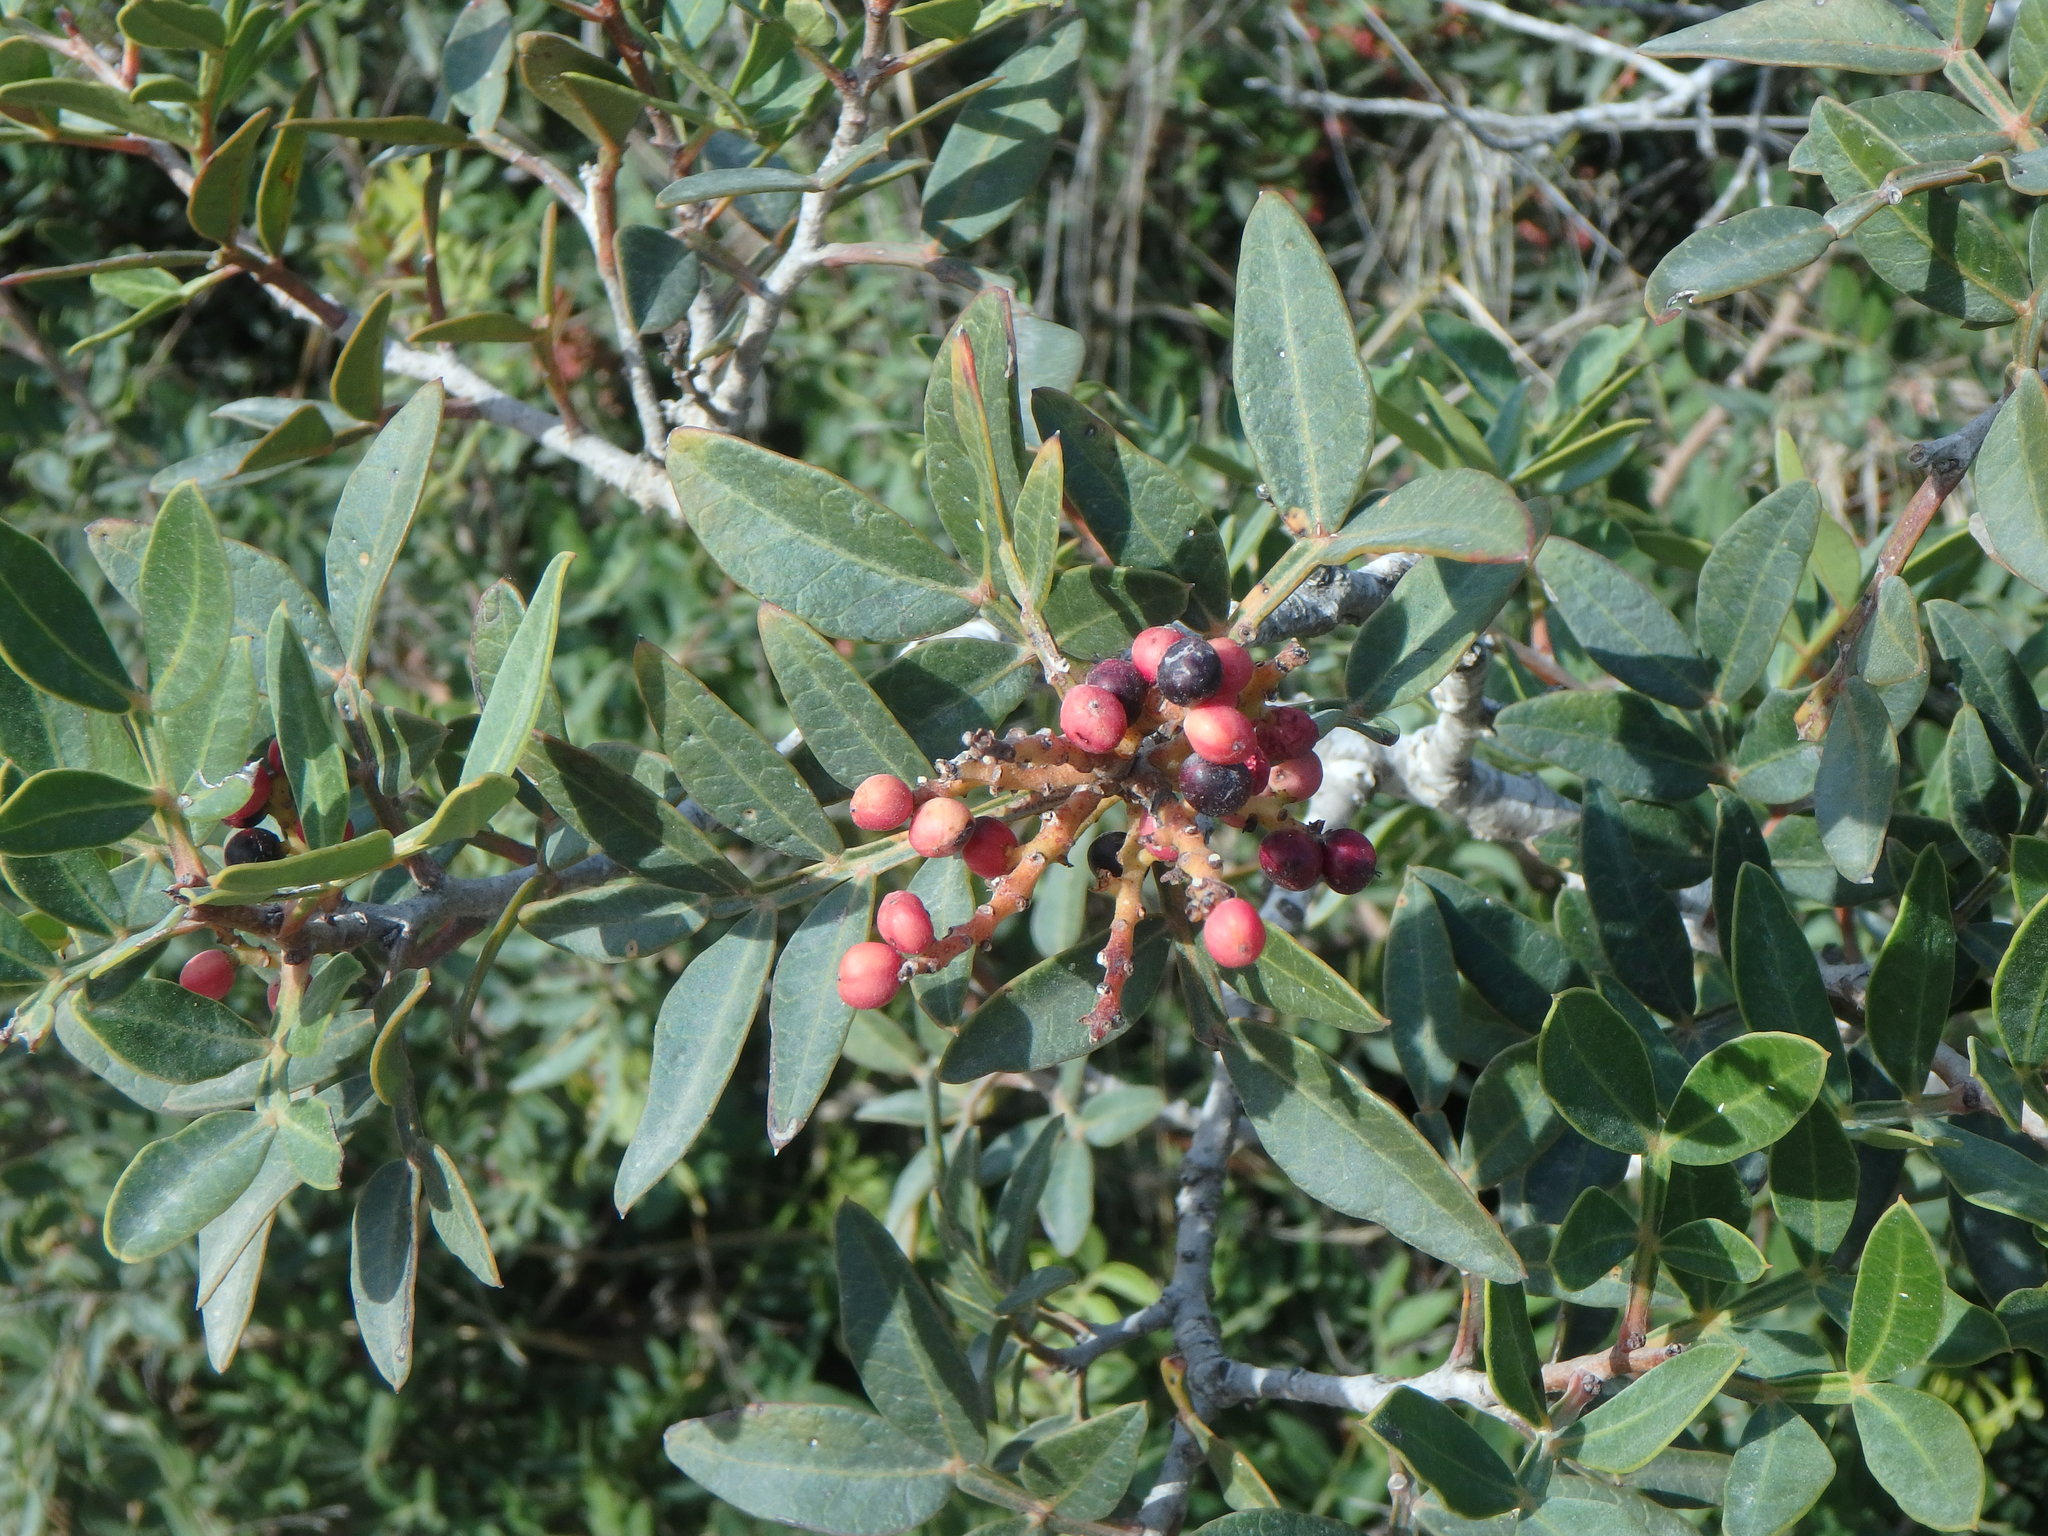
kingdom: Plantae
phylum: Tracheophyta
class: Magnoliopsida
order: Sapindales
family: Anacardiaceae
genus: Pistacia
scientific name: Pistacia lentiscus
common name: Lentisk
